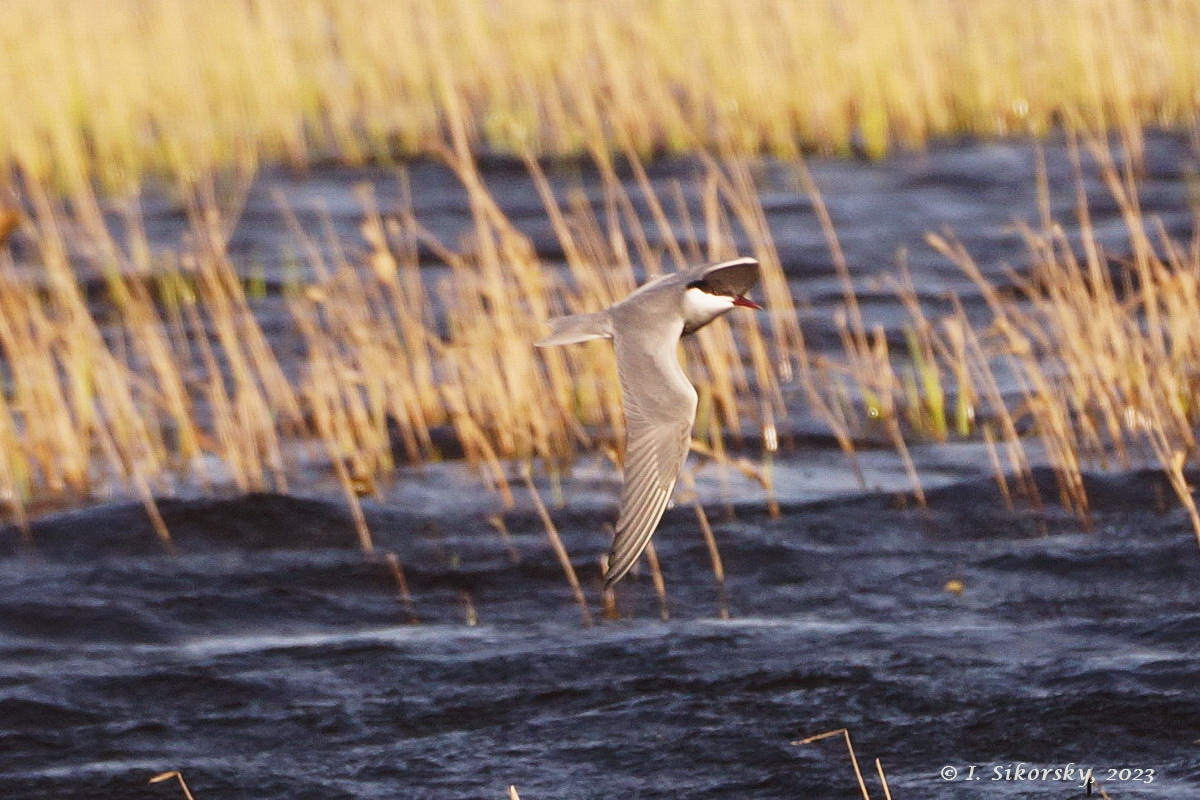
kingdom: Animalia
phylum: Chordata
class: Aves
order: Charadriiformes
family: Laridae
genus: Chlidonias
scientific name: Chlidonias hybrida
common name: Whiskered tern
